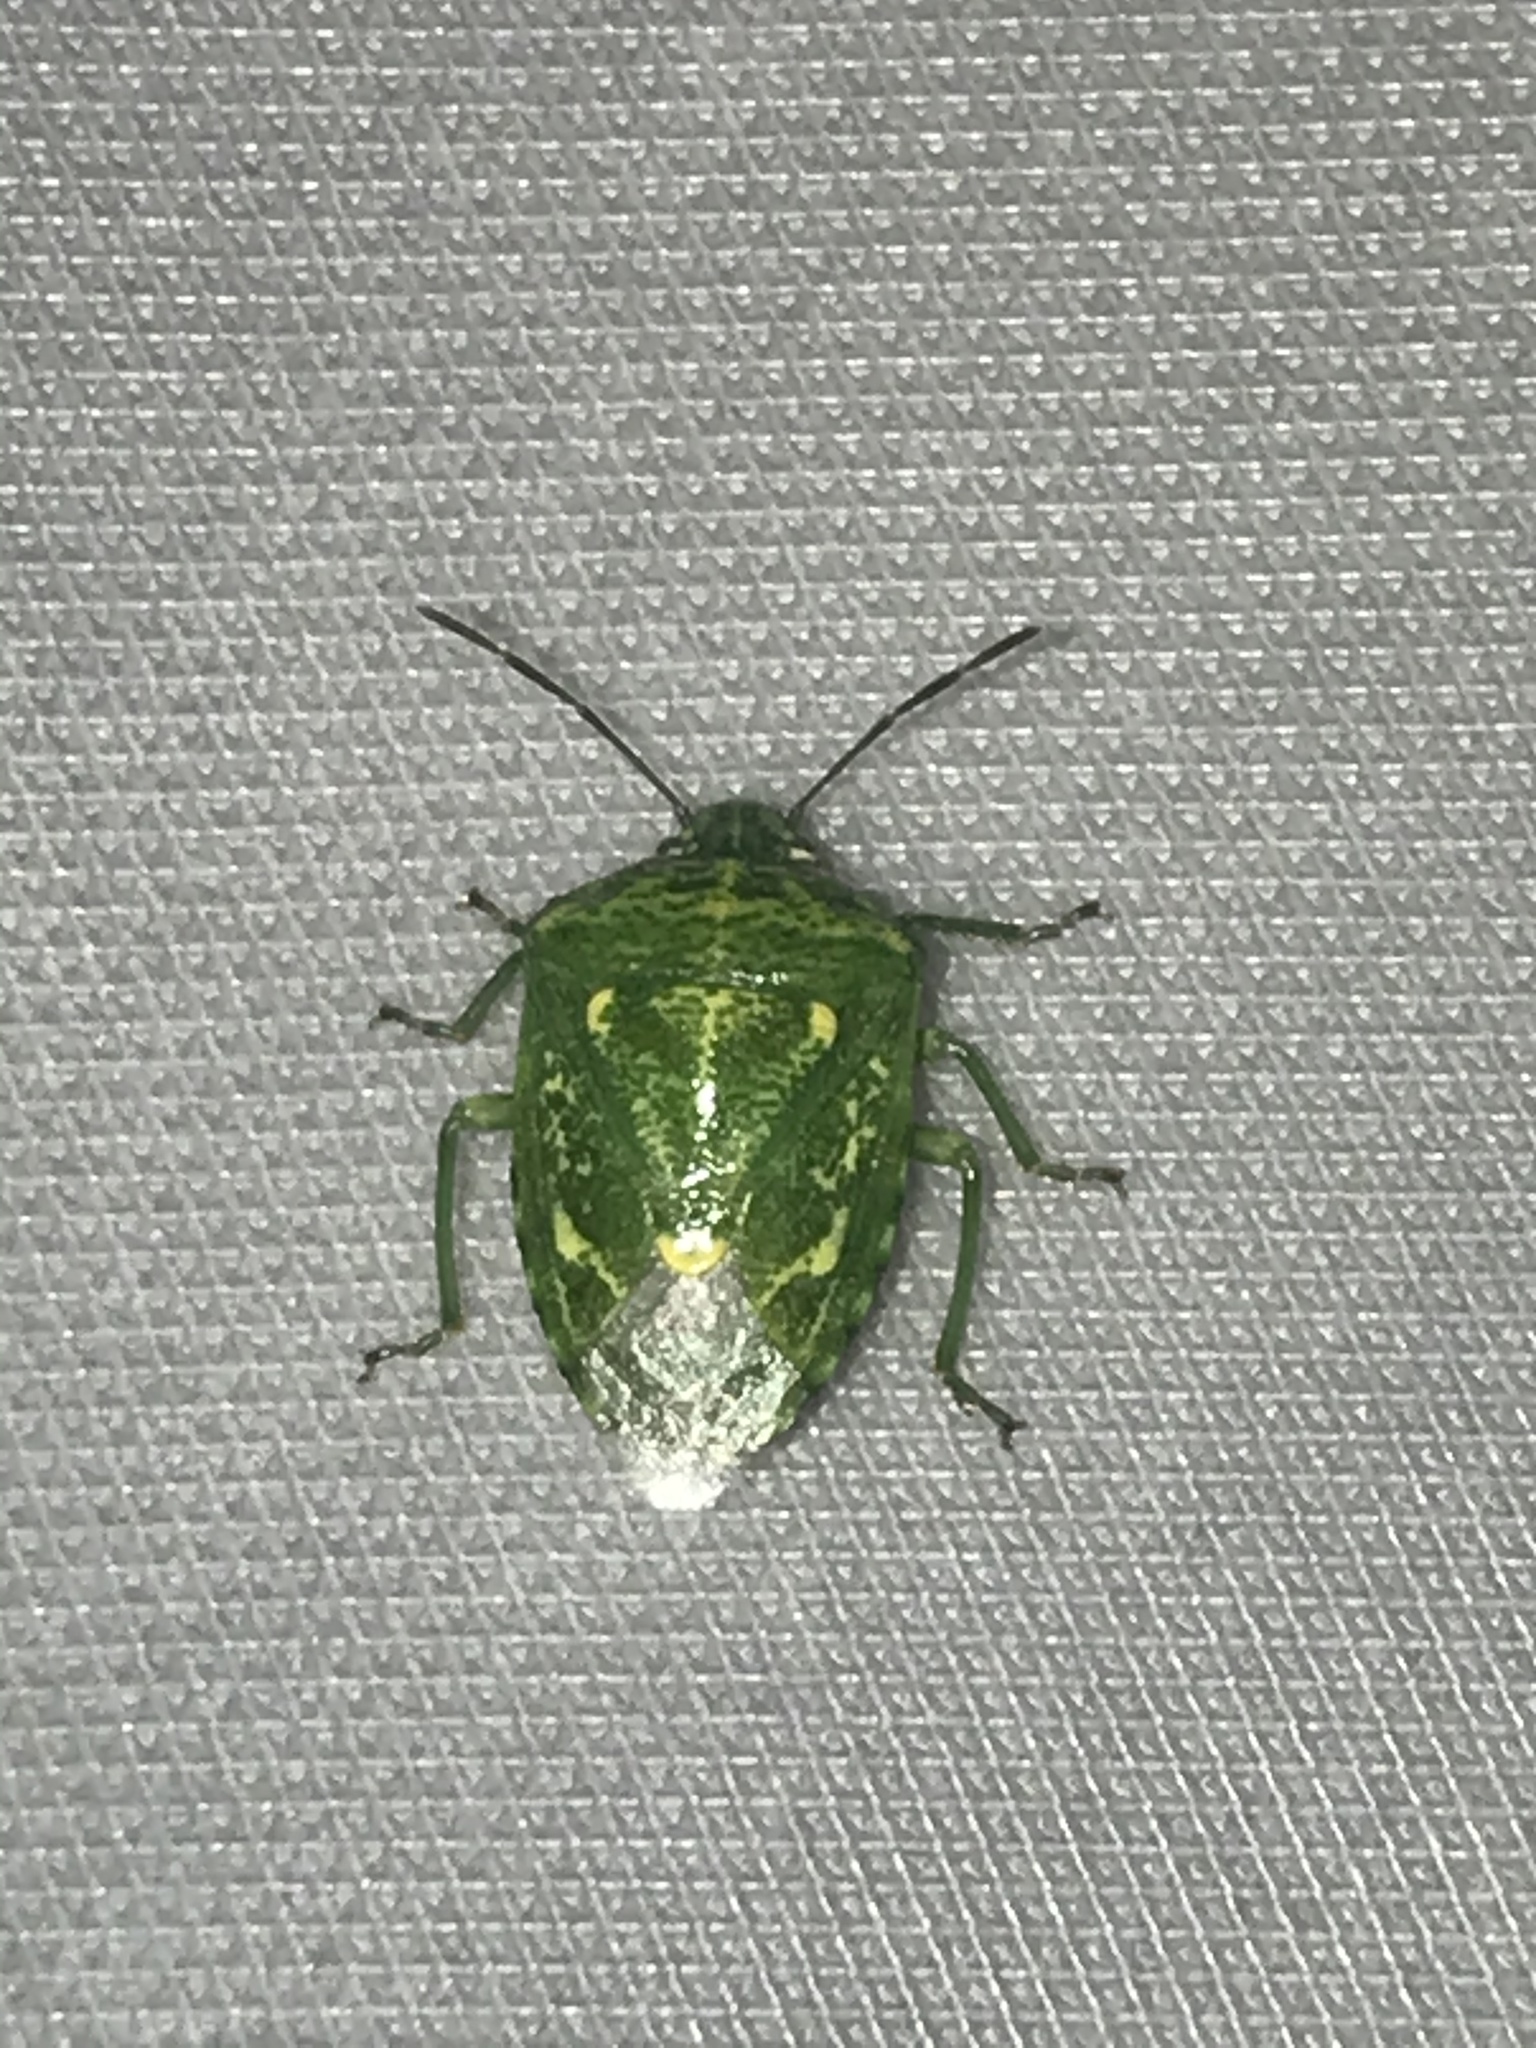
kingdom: Animalia
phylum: Arthropoda
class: Insecta
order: Hemiptera
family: Pentatomidae
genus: Banasa
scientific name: Banasa euchlora
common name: Cedar berry bug
